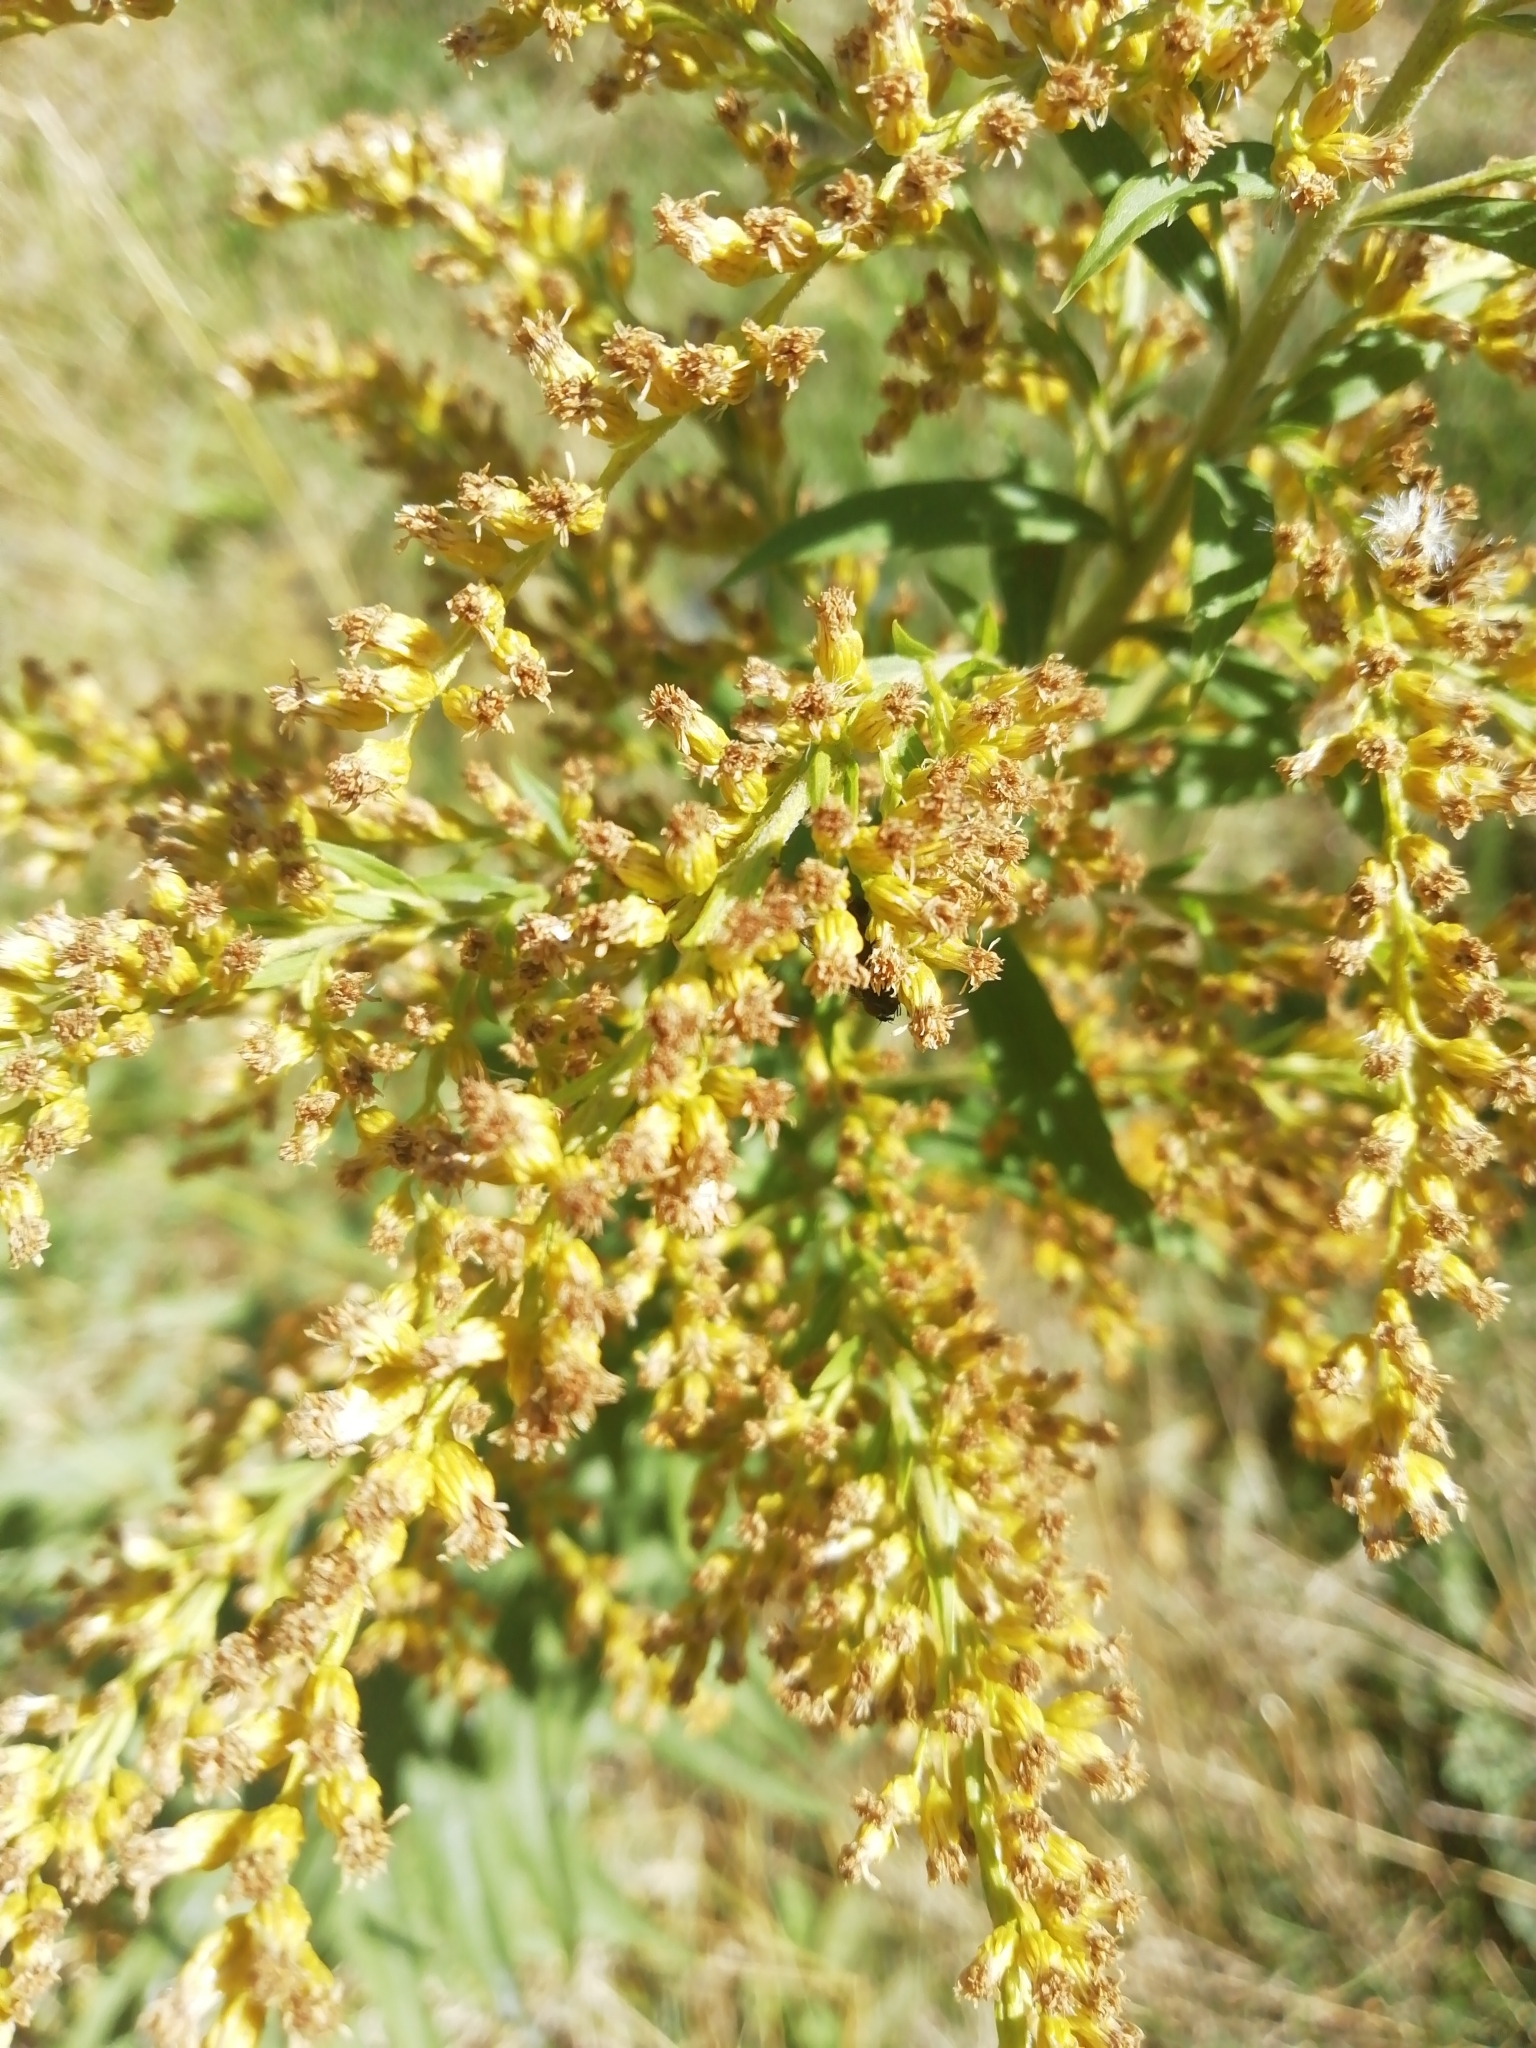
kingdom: Plantae
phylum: Tracheophyta
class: Magnoliopsida
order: Asterales
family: Asteraceae
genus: Solidago
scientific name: Solidago canadensis
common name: Canada goldenrod
